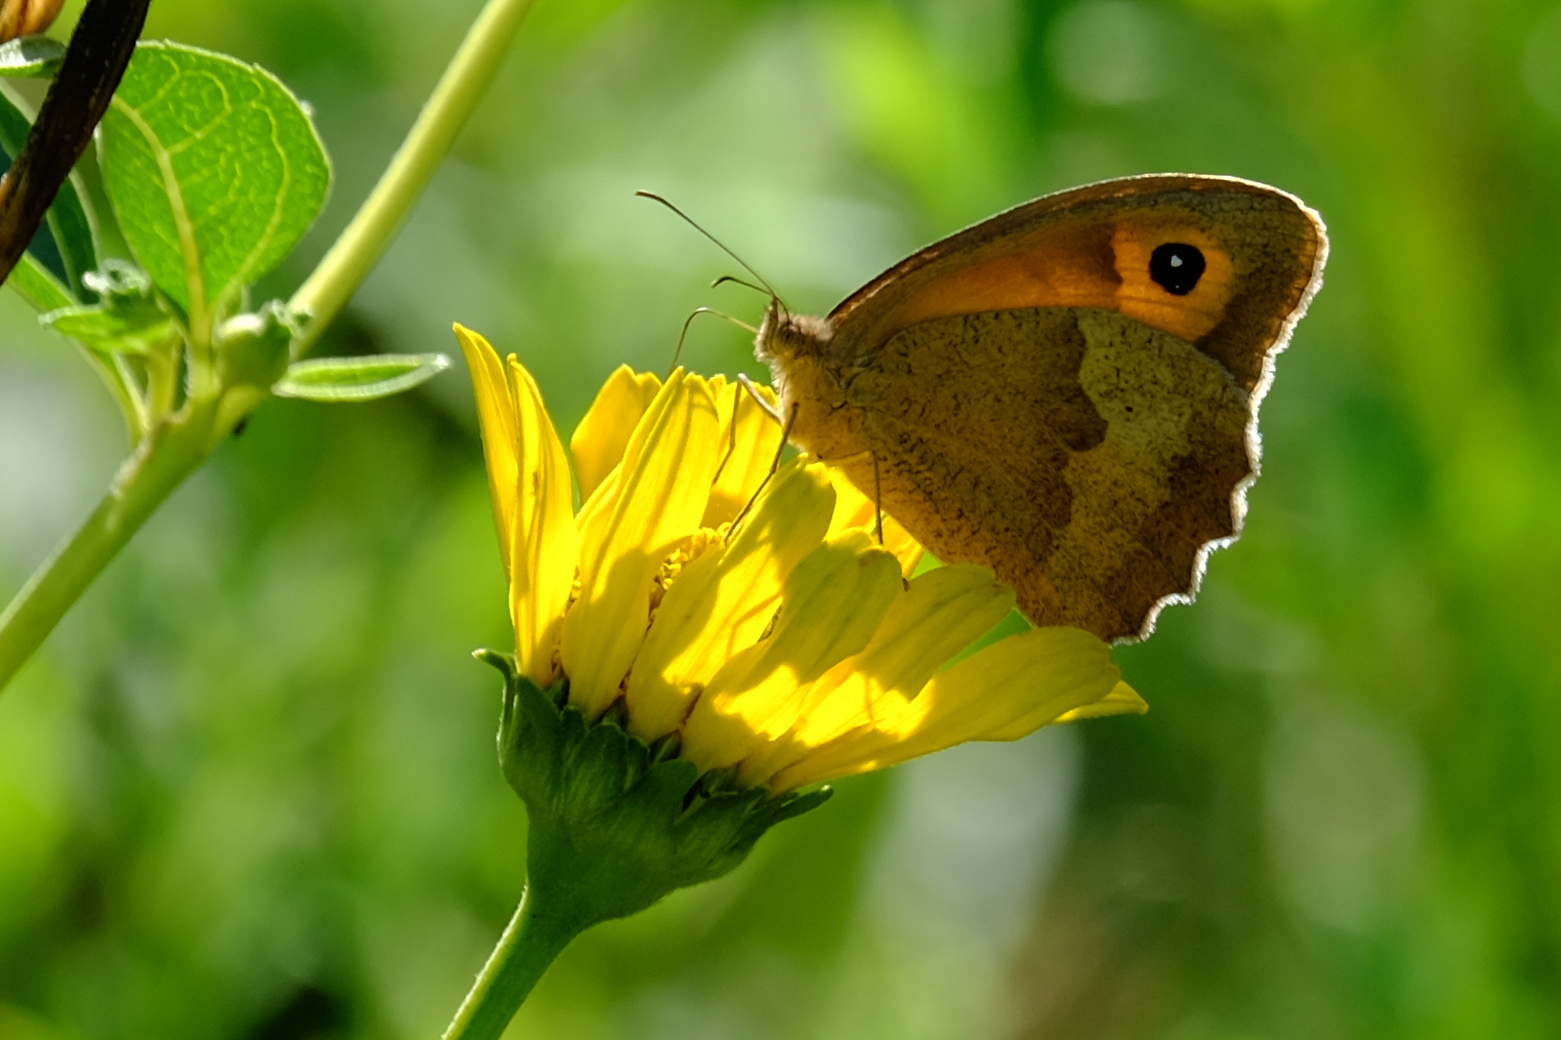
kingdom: Animalia
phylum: Arthropoda
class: Insecta
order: Lepidoptera
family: Nymphalidae
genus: Maniola
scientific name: Maniola jurtina
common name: Meadow brown
